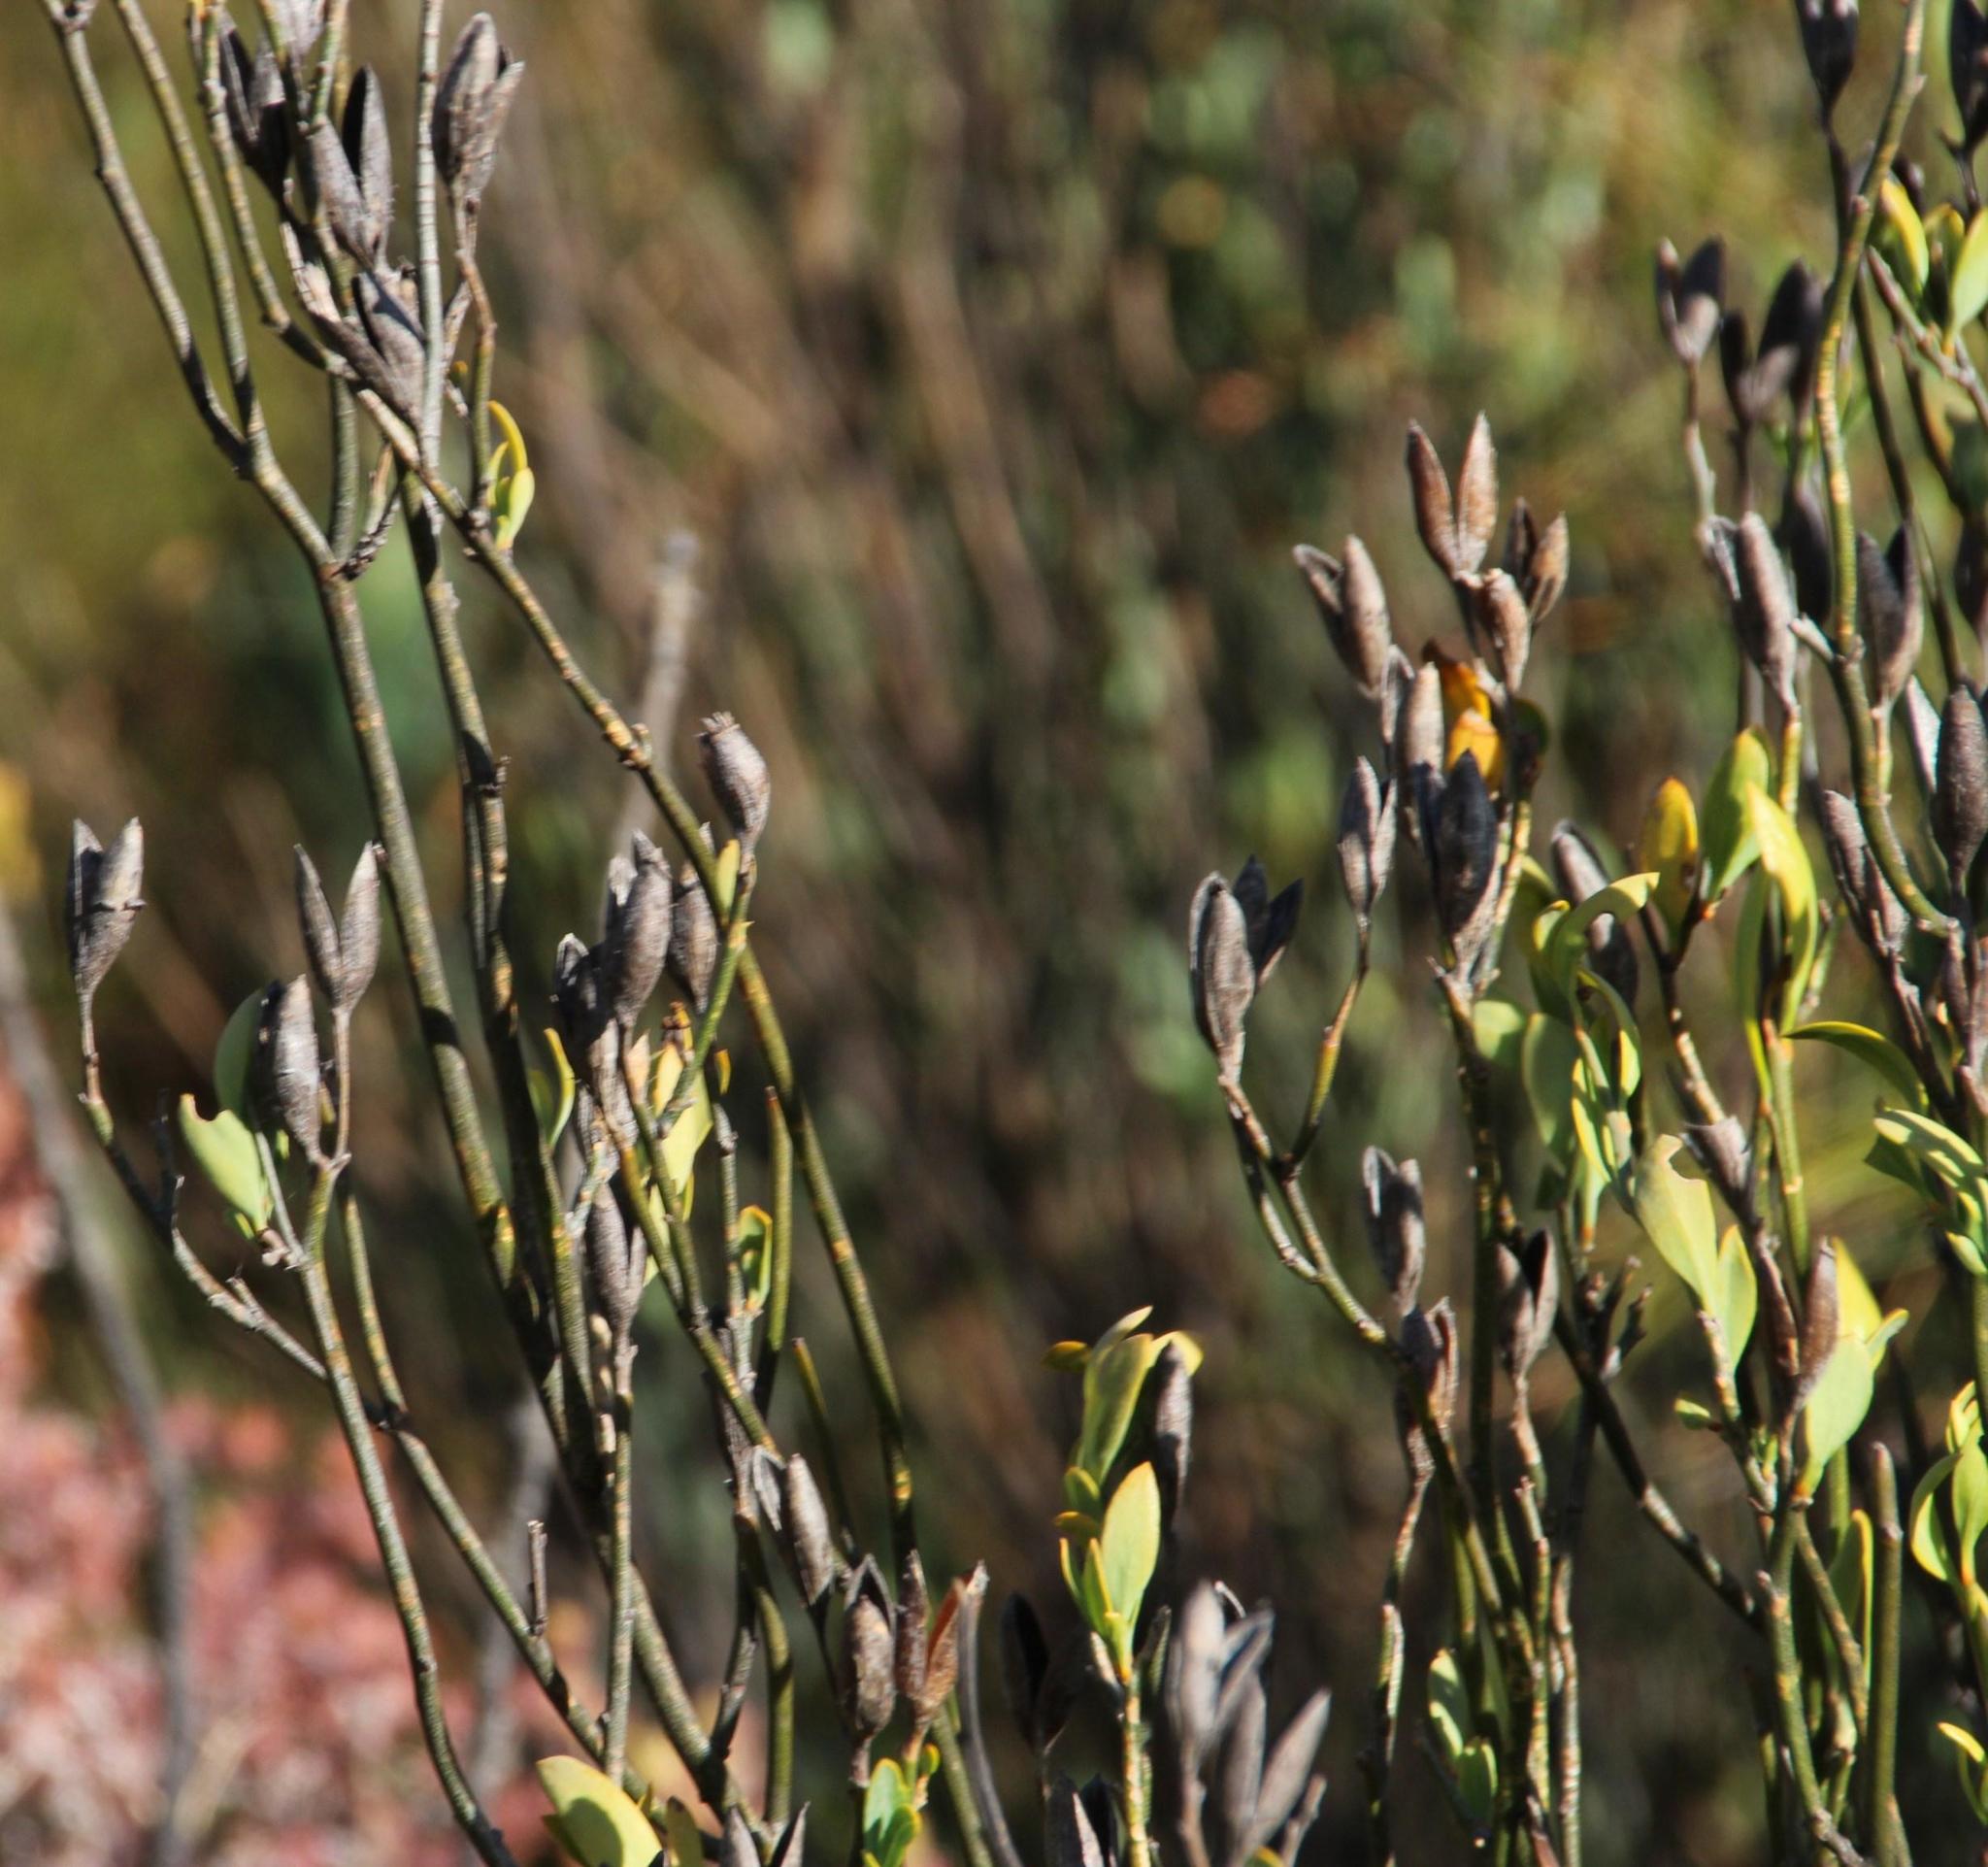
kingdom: Plantae
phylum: Tracheophyta
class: Magnoliopsida
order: Solanales
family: Montiniaceae
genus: Montinia
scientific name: Montinia caryophyllacea
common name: Wild clove-bush
